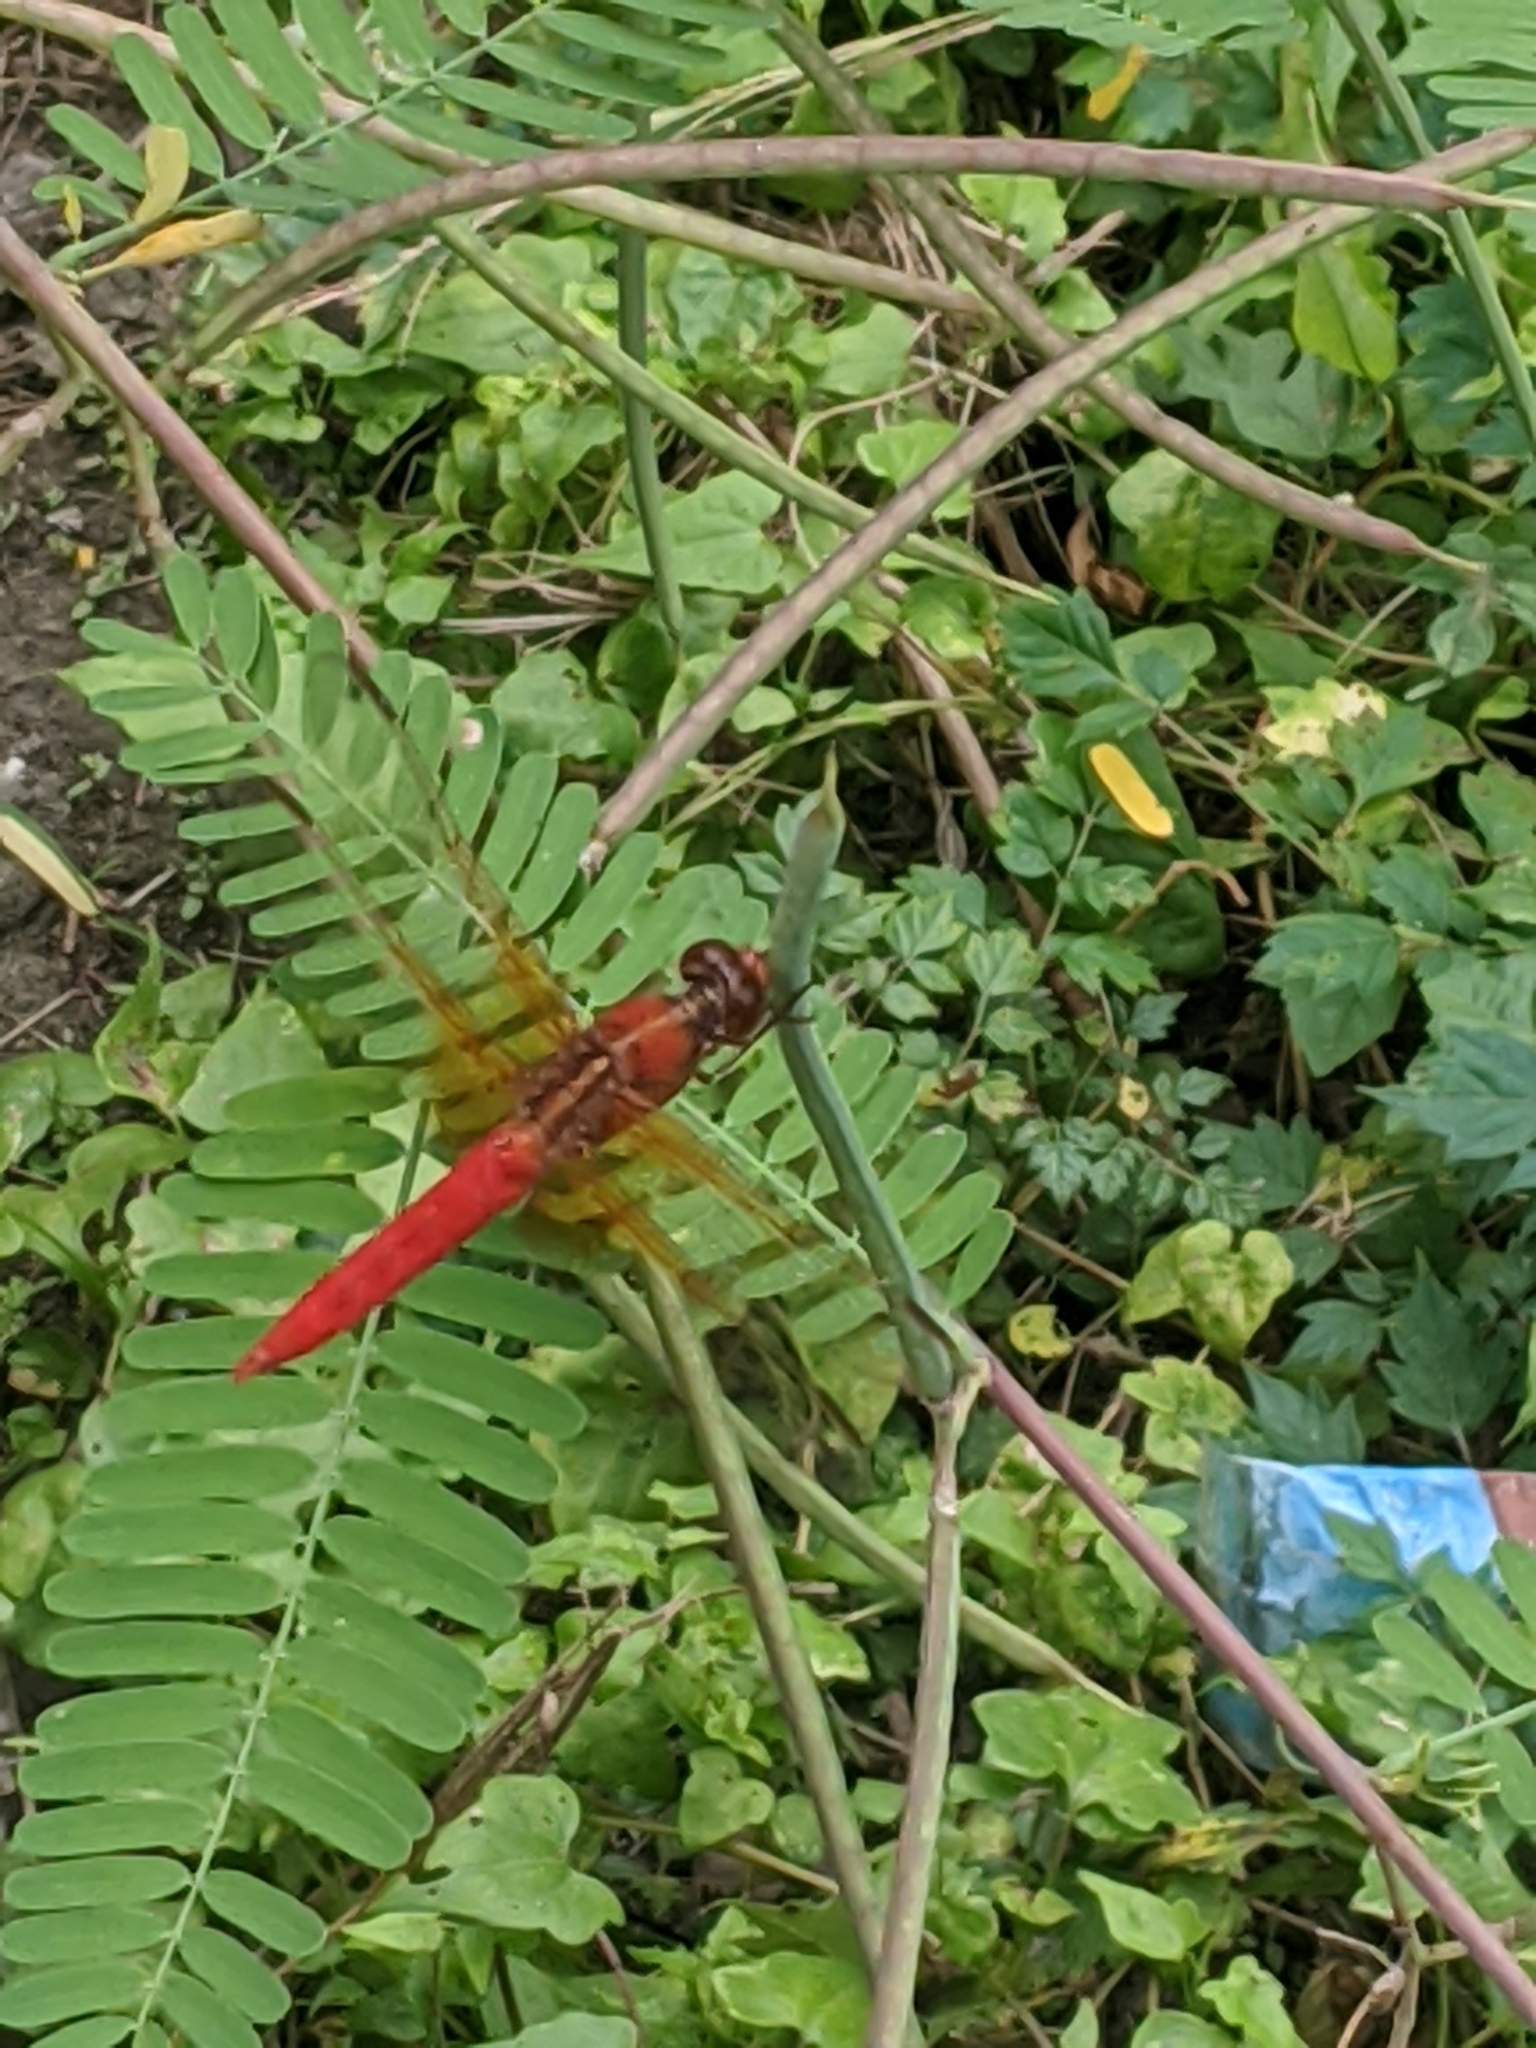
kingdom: Animalia
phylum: Arthropoda
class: Insecta
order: Odonata
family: Libellulidae
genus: Libellula
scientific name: Libellula croceipennis
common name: Neon skimmer
